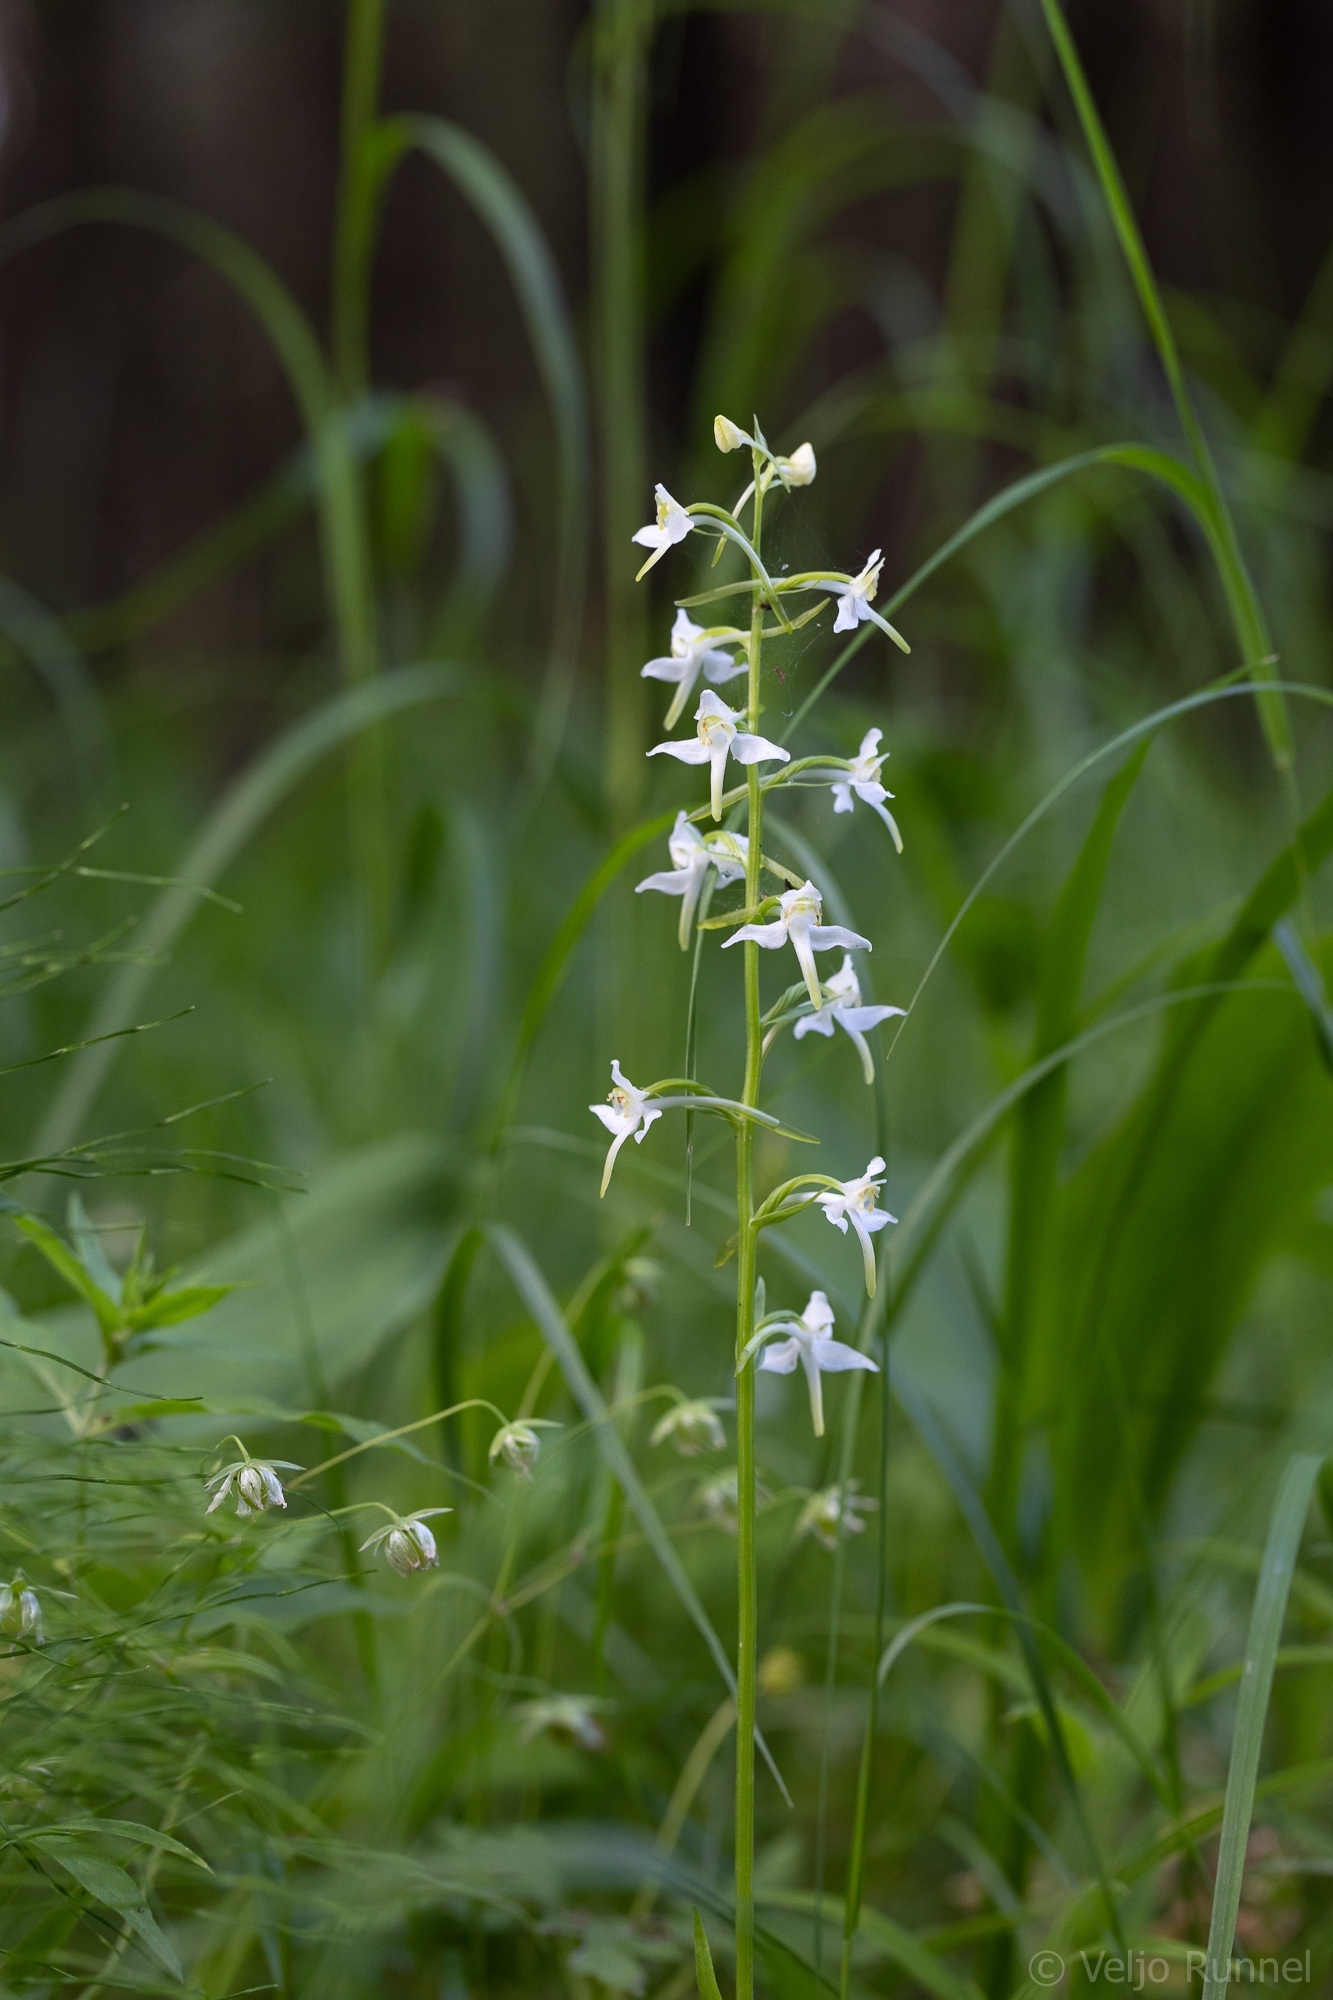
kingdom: Plantae
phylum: Tracheophyta
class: Liliopsida
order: Asparagales
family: Orchidaceae
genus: Platanthera
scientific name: Platanthera bifolia
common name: Lesser butterfly-orchid
